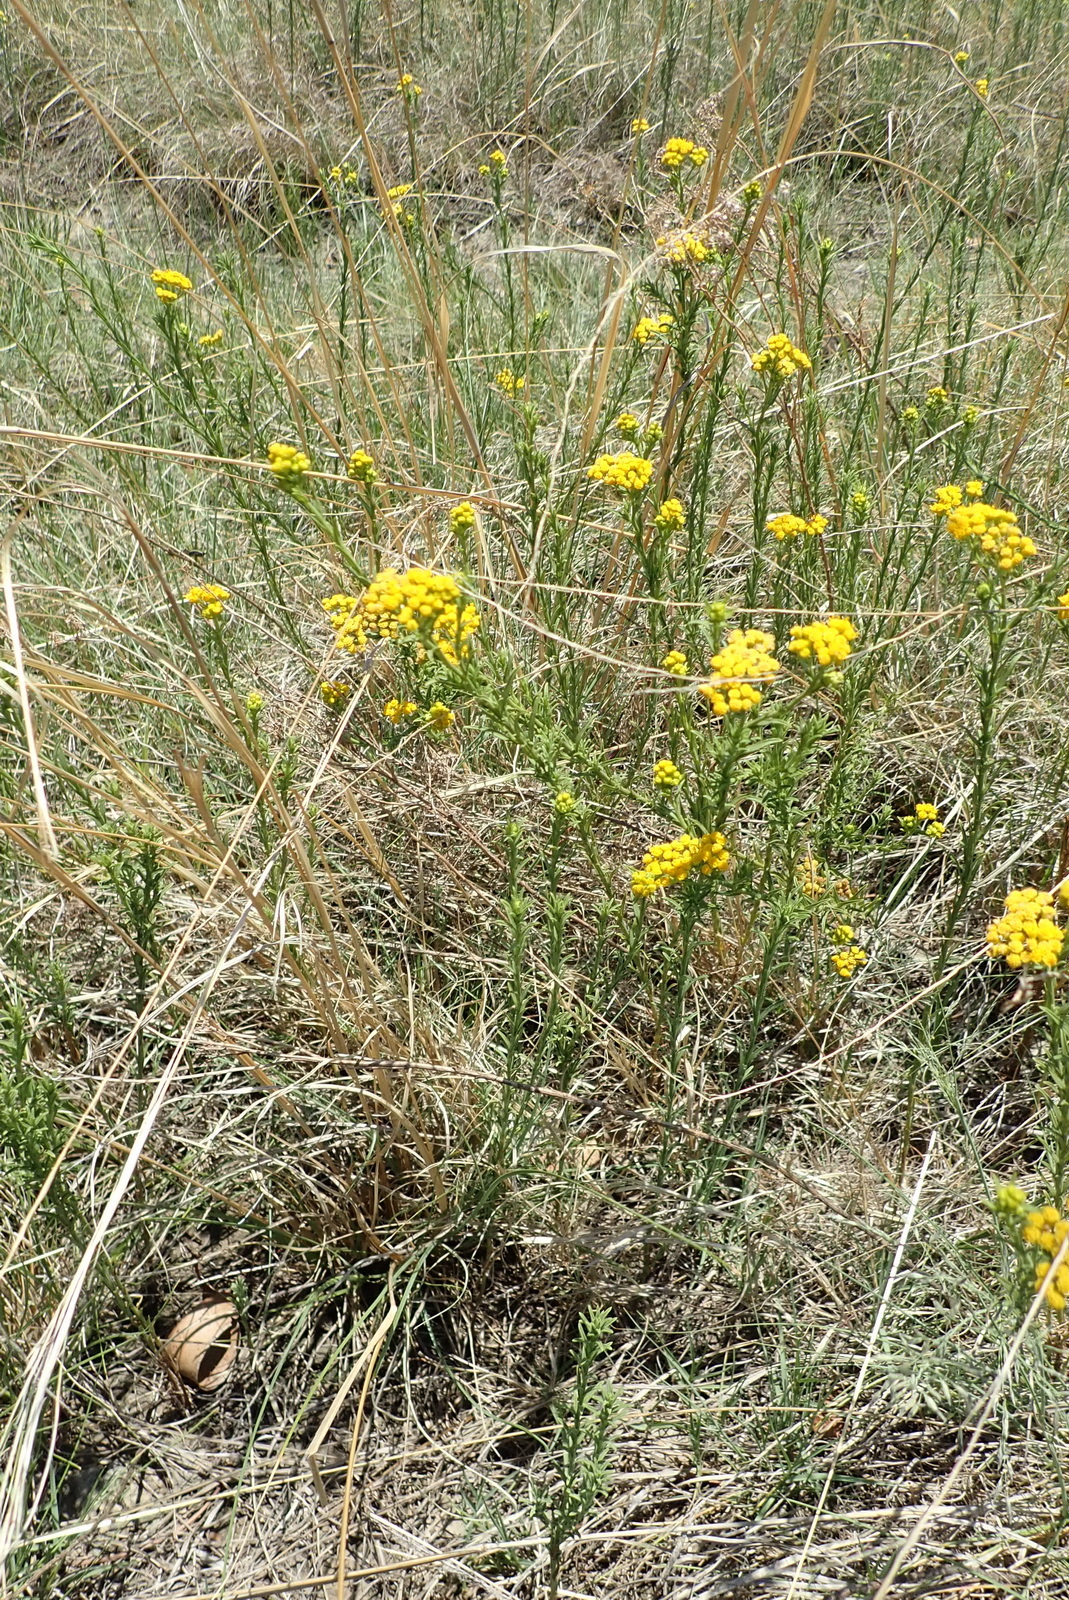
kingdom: Plantae
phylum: Tracheophyta
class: Magnoliopsida
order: Asterales
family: Asteraceae
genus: Nidorella
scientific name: Nidorella anomala
